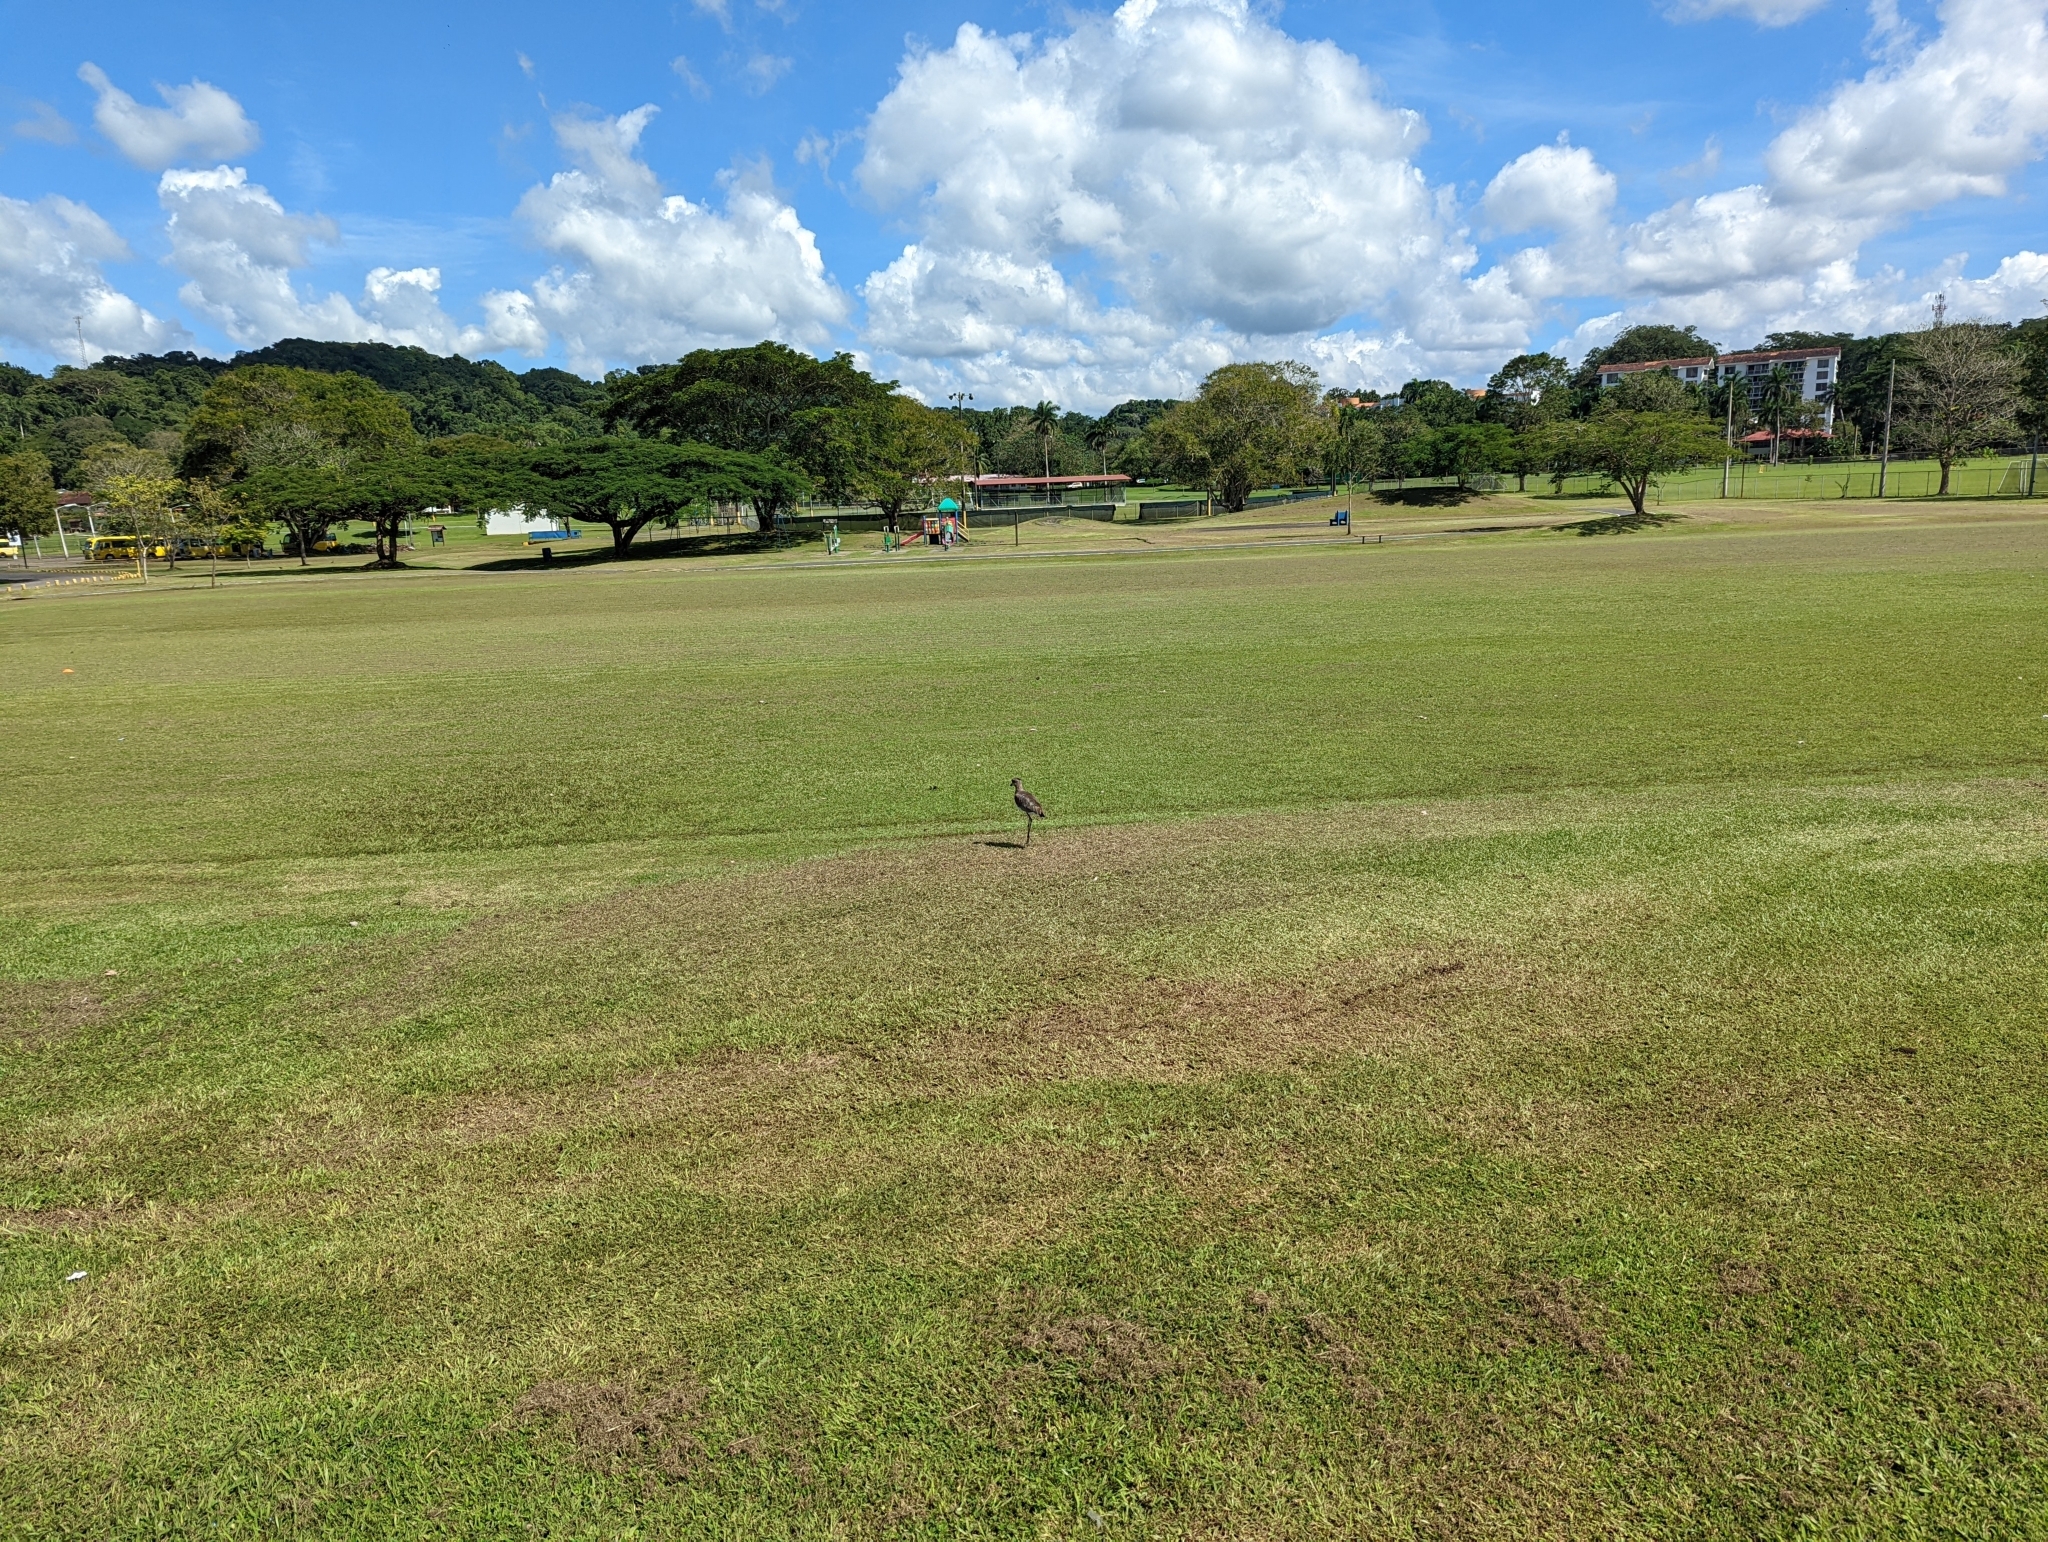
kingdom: Animalia
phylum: Chordata
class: Aves
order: Charadriiformes
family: Charadriidae
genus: Vanellus
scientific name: Vanellus chilensis
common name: Southern lapwing
